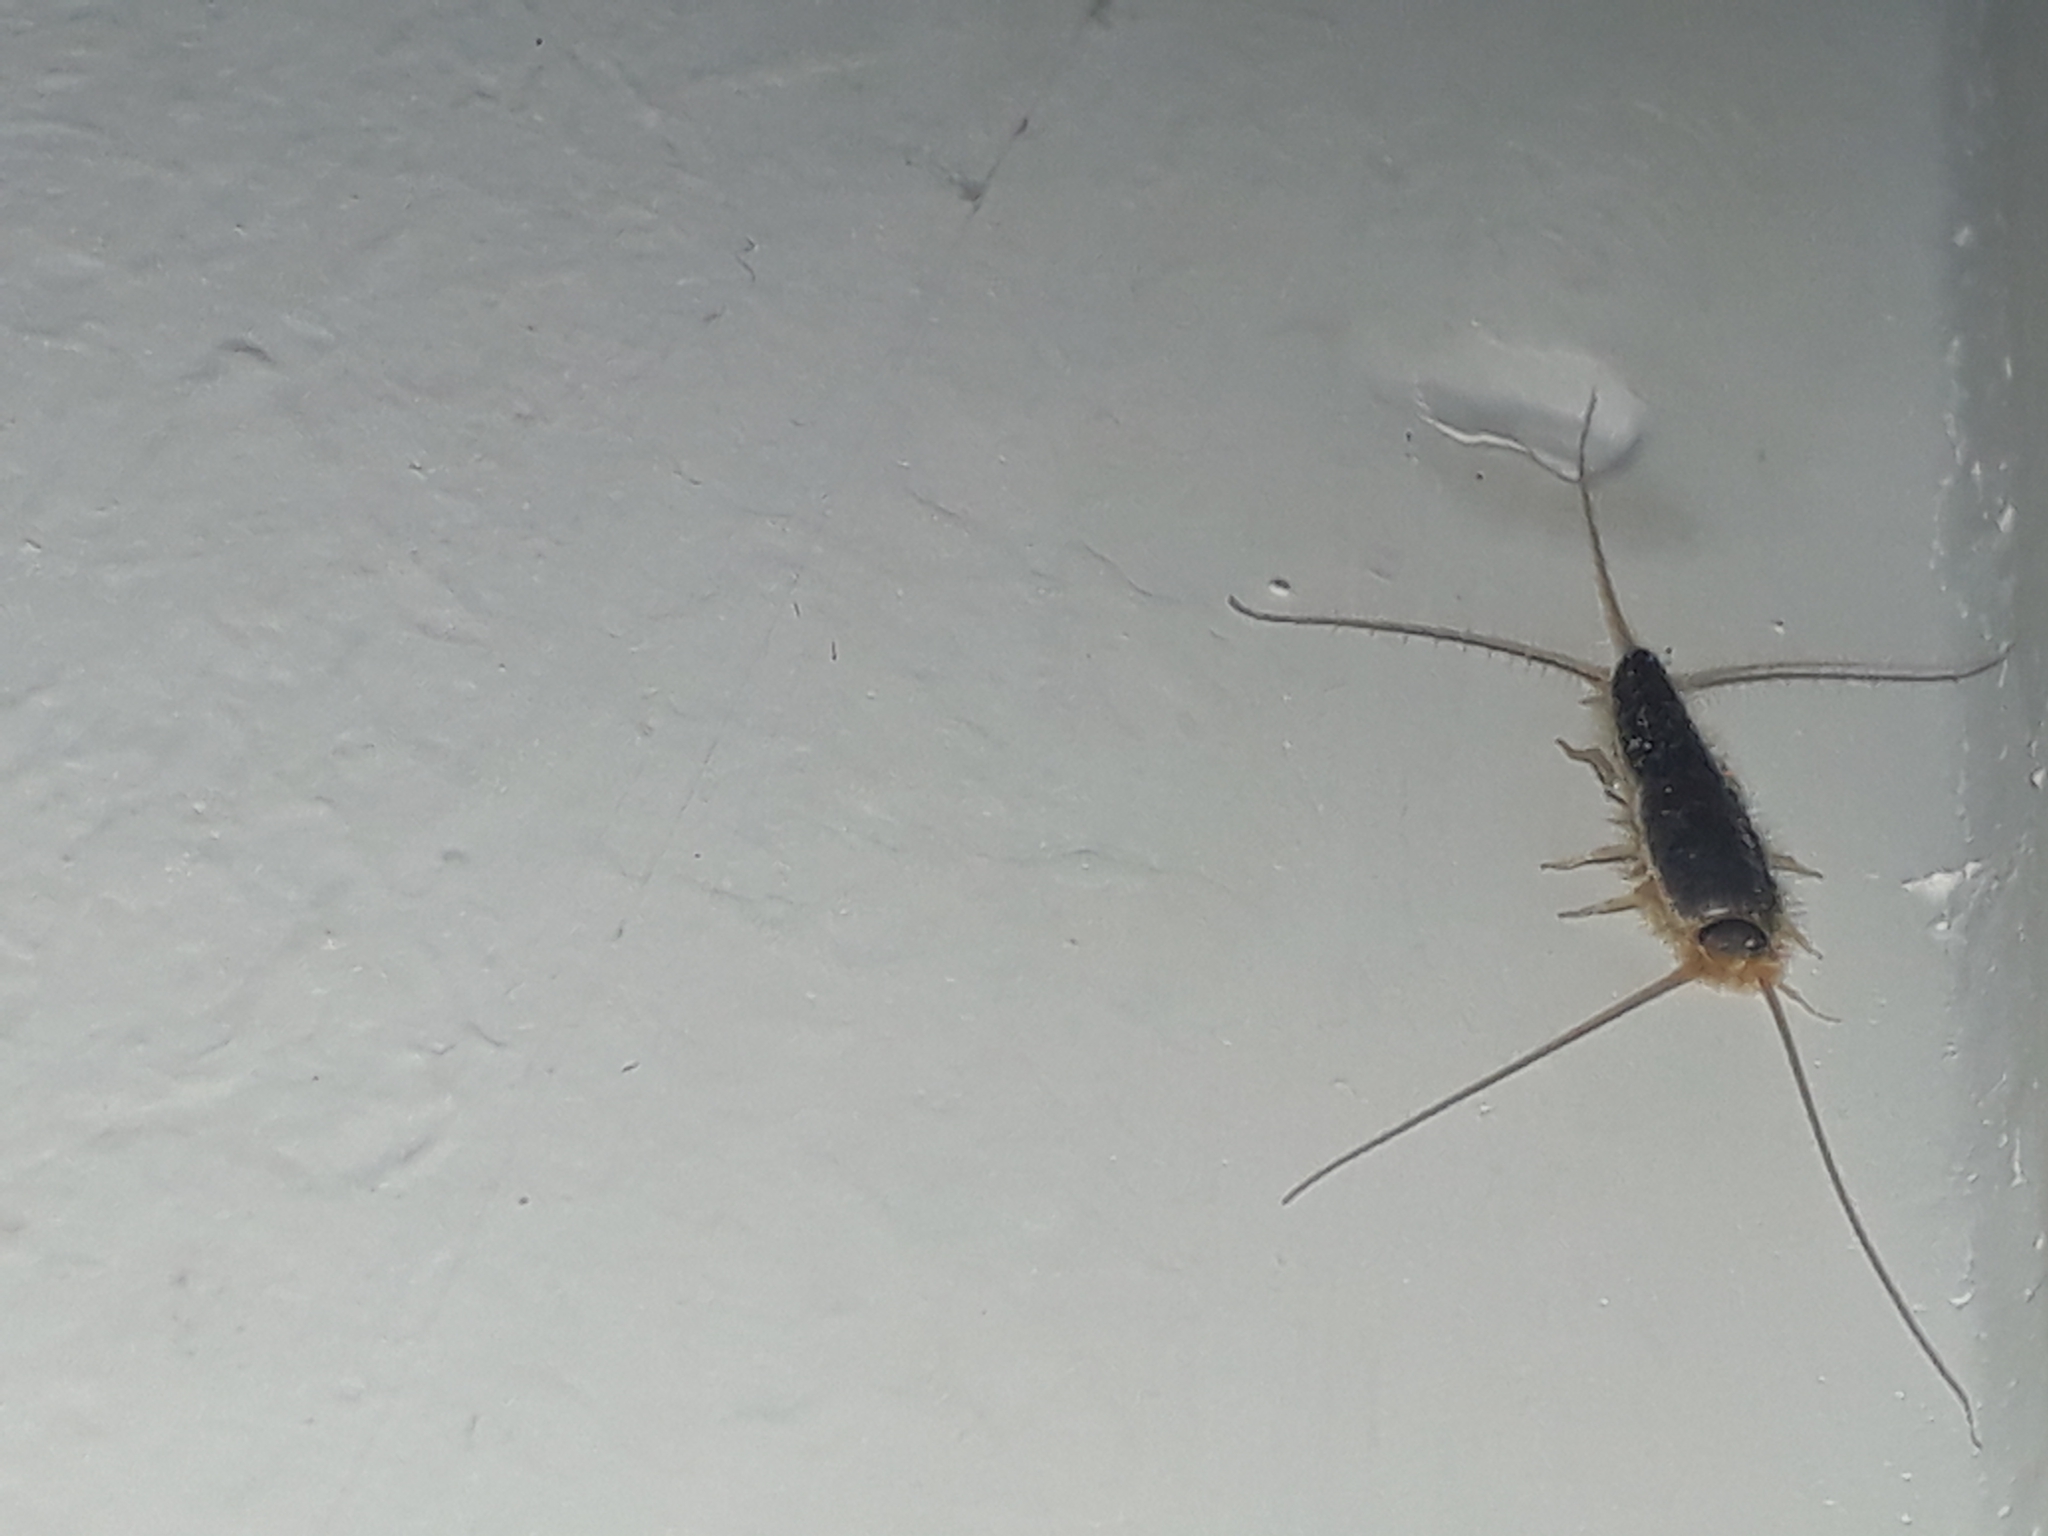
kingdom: Animalia
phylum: Arthropoda
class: Insecta
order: Zygentoma
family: Lepismatidae
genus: Ctenolepisma
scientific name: Ctenolepisma longicaudatum
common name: Silverfish
